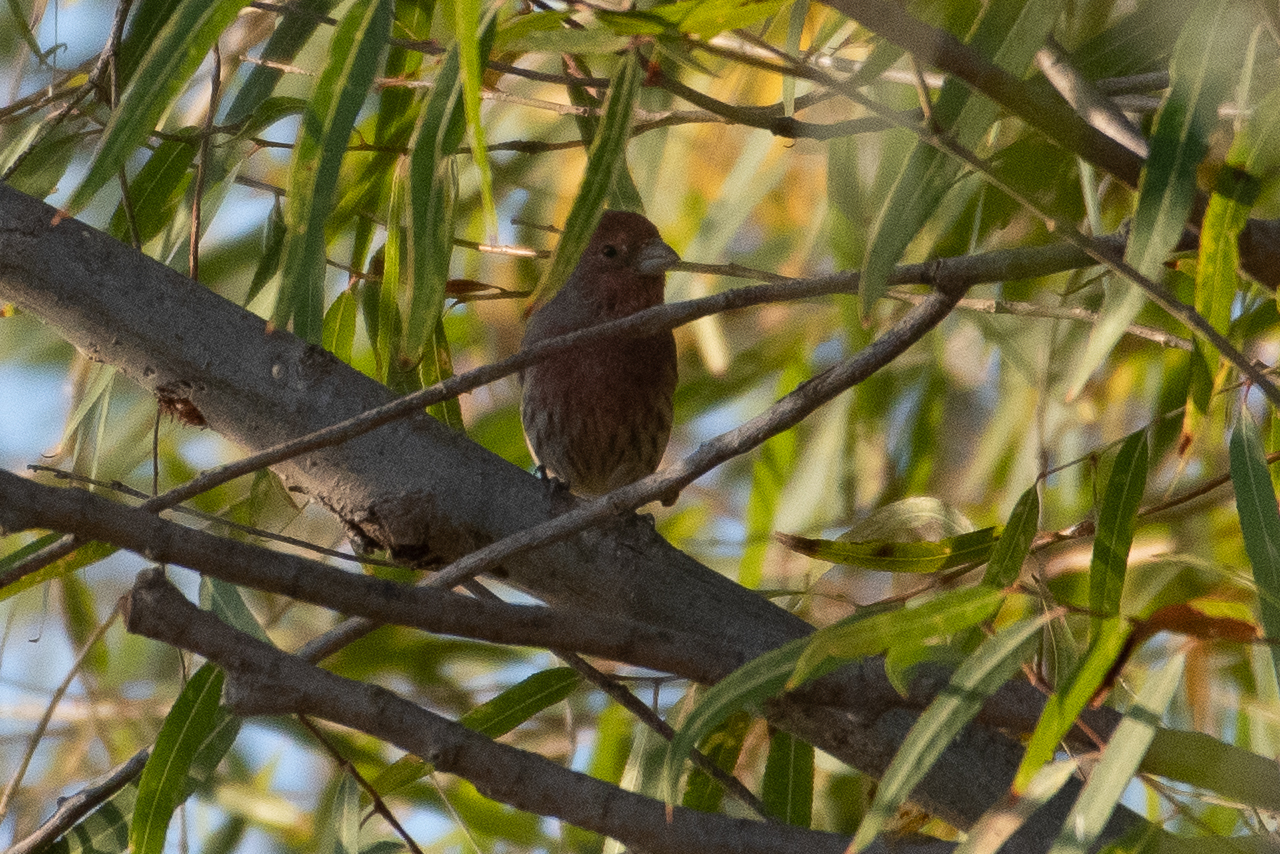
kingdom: Animalia
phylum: Chordata
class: Aves
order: Passeriformes
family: Fringillidae
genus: Haemorhous
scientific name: Haemorhous mexicanus
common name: House finch
